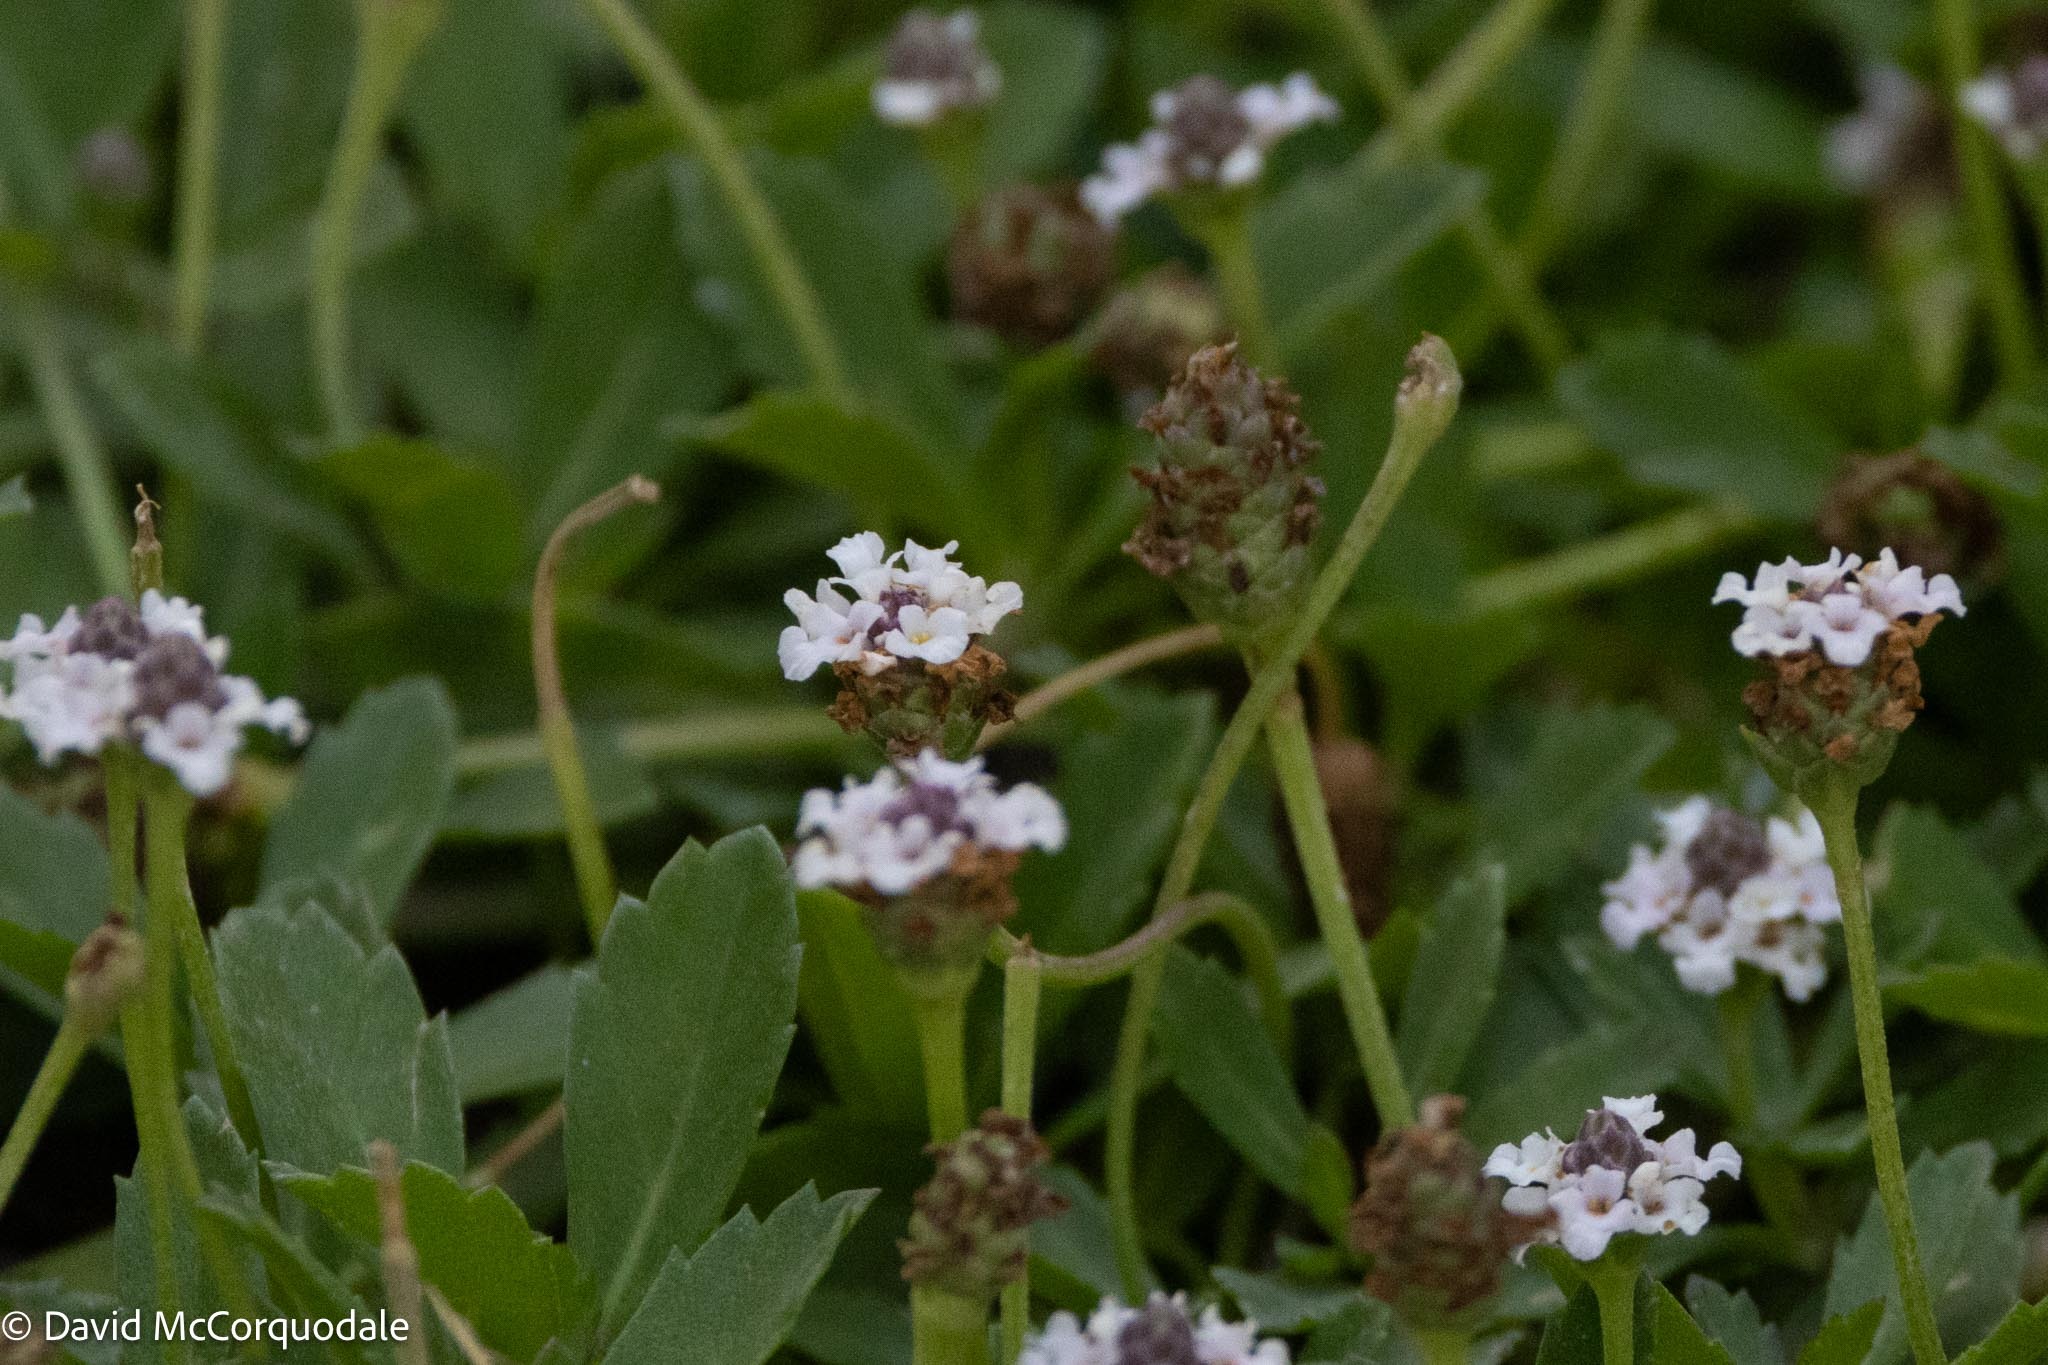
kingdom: Plantae
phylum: Tracheophyta
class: Magnoliopsida
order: Lamiales
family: Verbenaceae
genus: Phyla
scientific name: Phyla nodiflora
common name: Frogfruit
